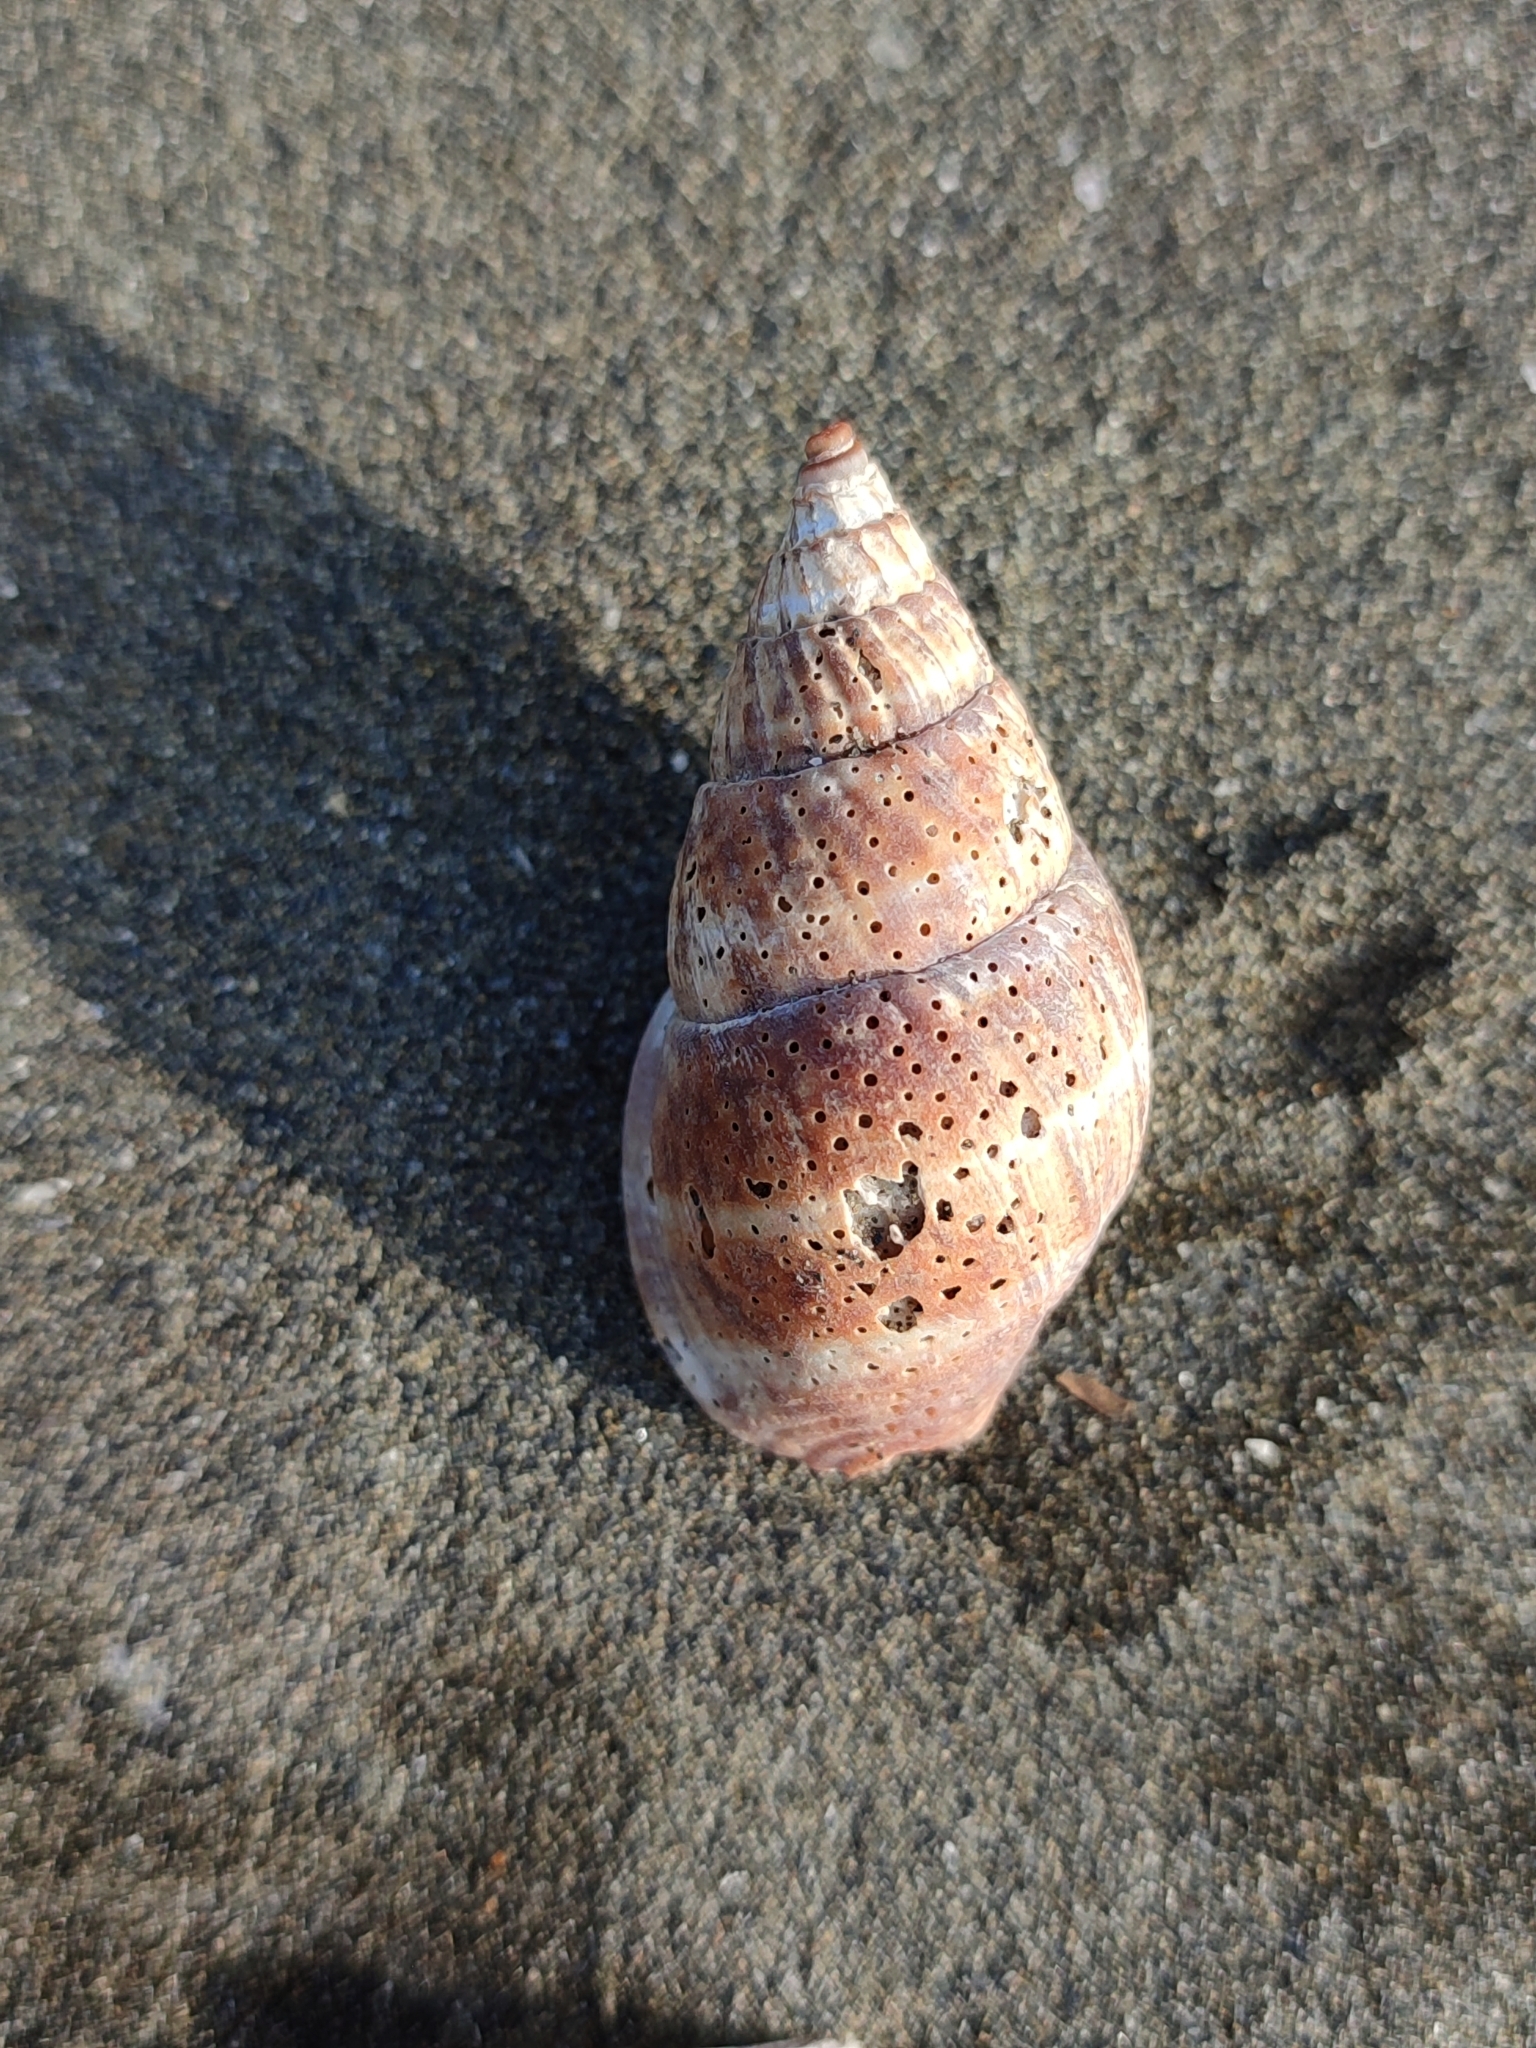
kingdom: Animalia
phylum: Mollusca
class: Gastropoda
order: Neogastropoda
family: Nassariidae
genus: Nassarius
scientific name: Nassarius olivaceus
